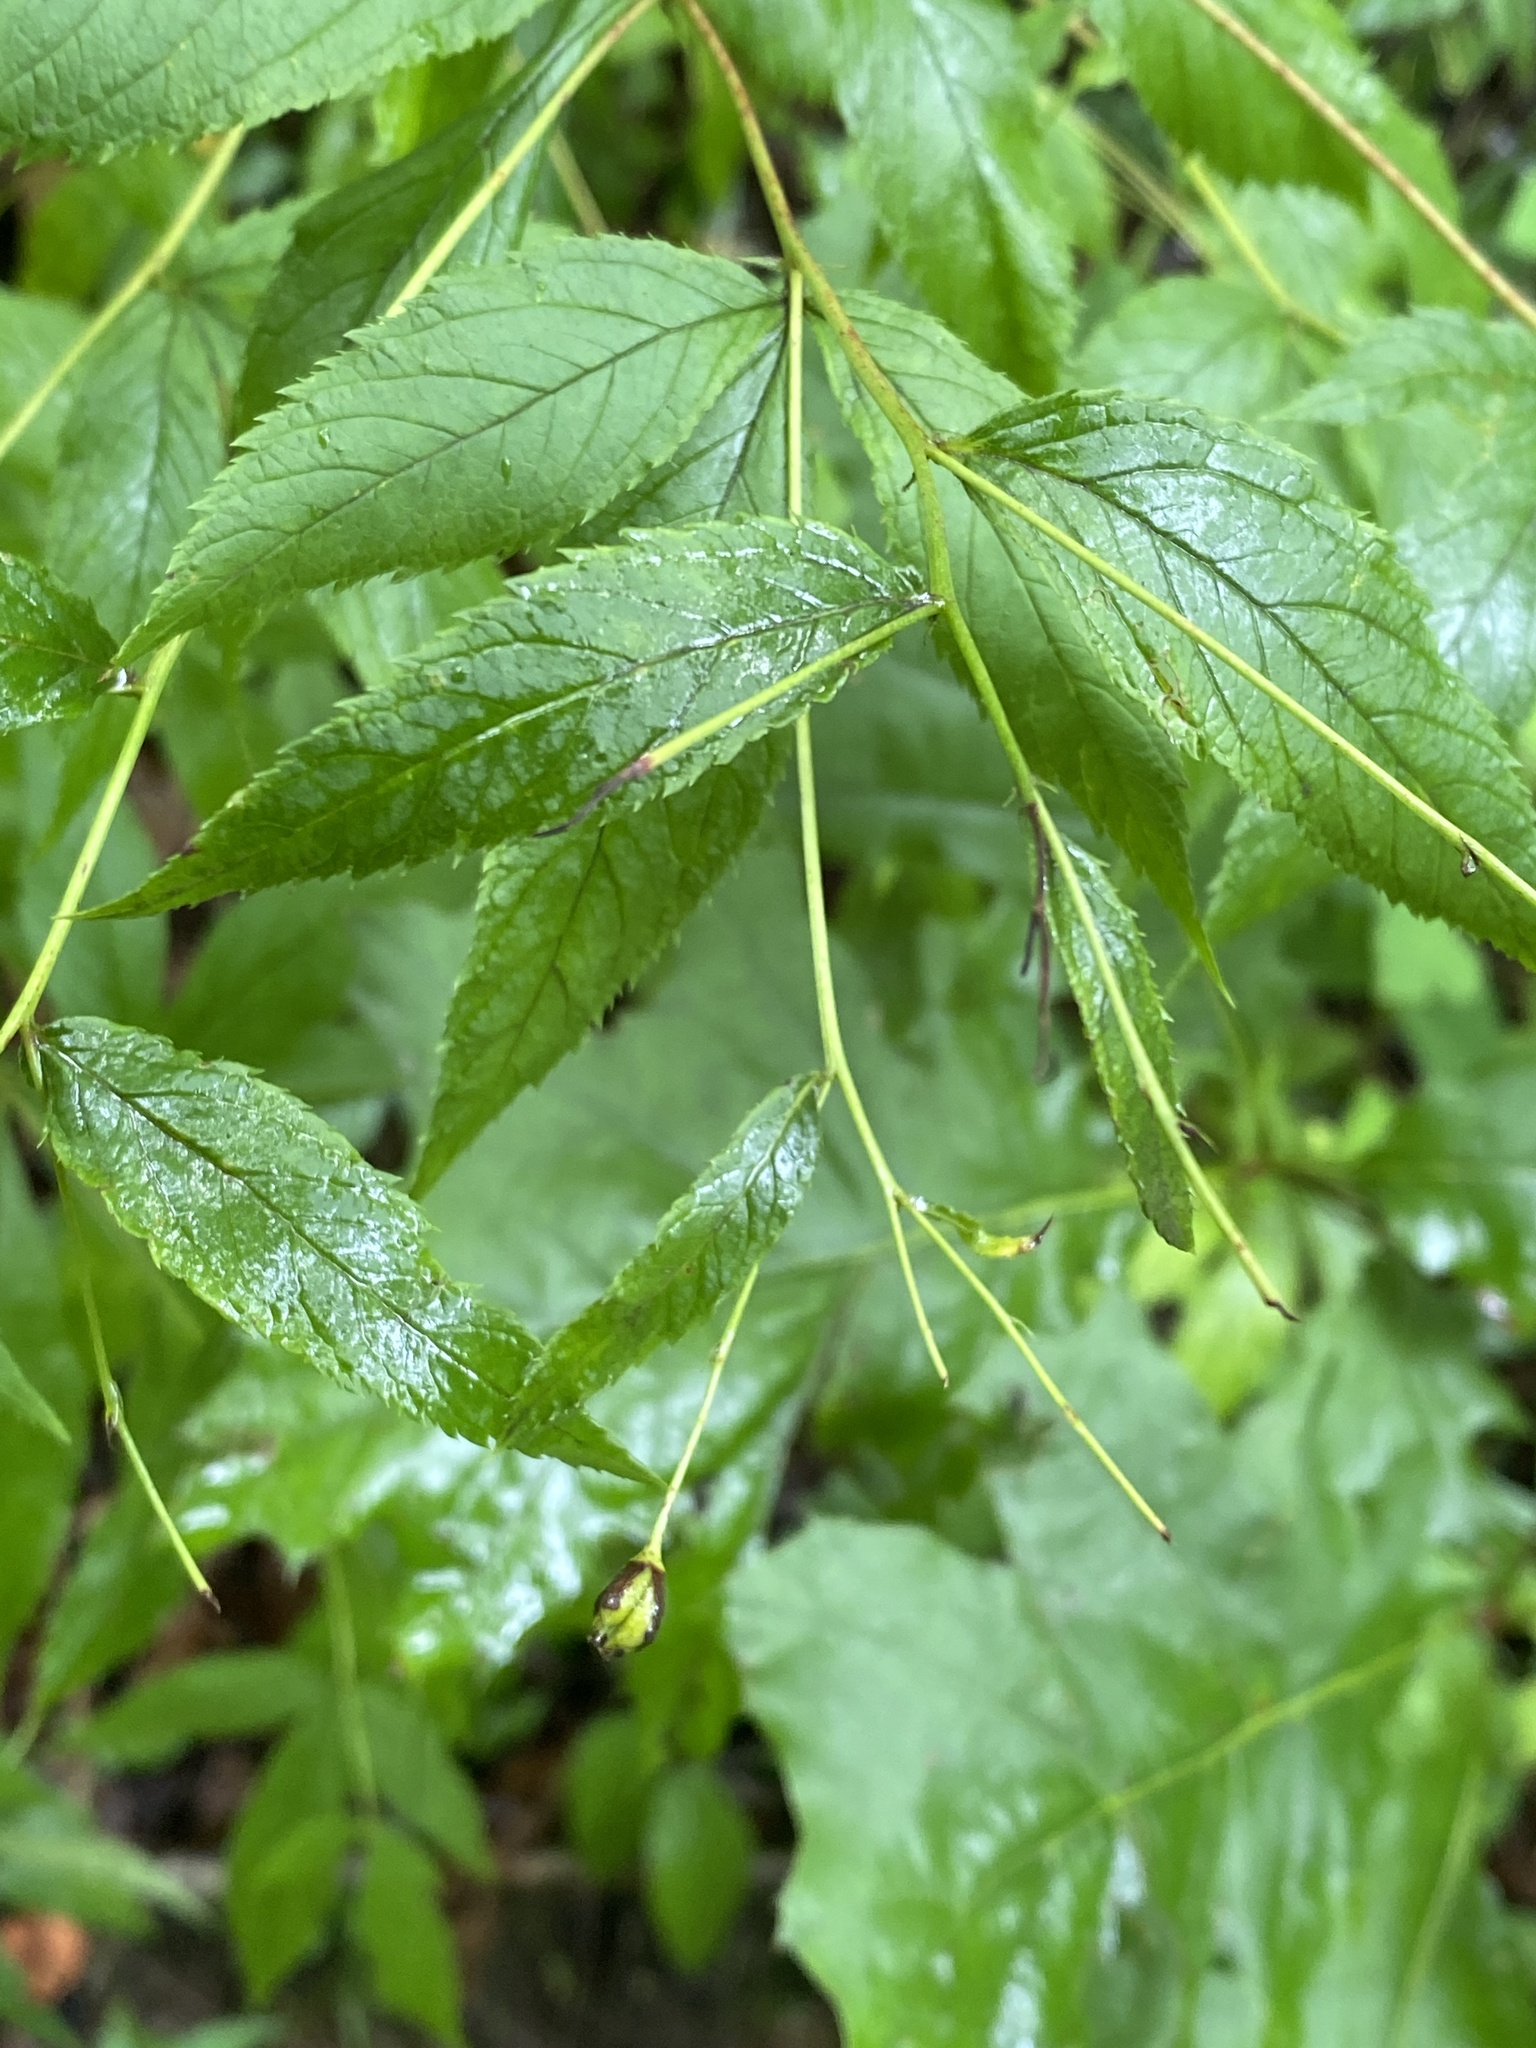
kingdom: Plantae
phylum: Tracheophyta
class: Magnoliopsida
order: Rosales
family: Rosaceae
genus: Gillenia
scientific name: Gillenia trifoliata
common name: Bowman's-root
